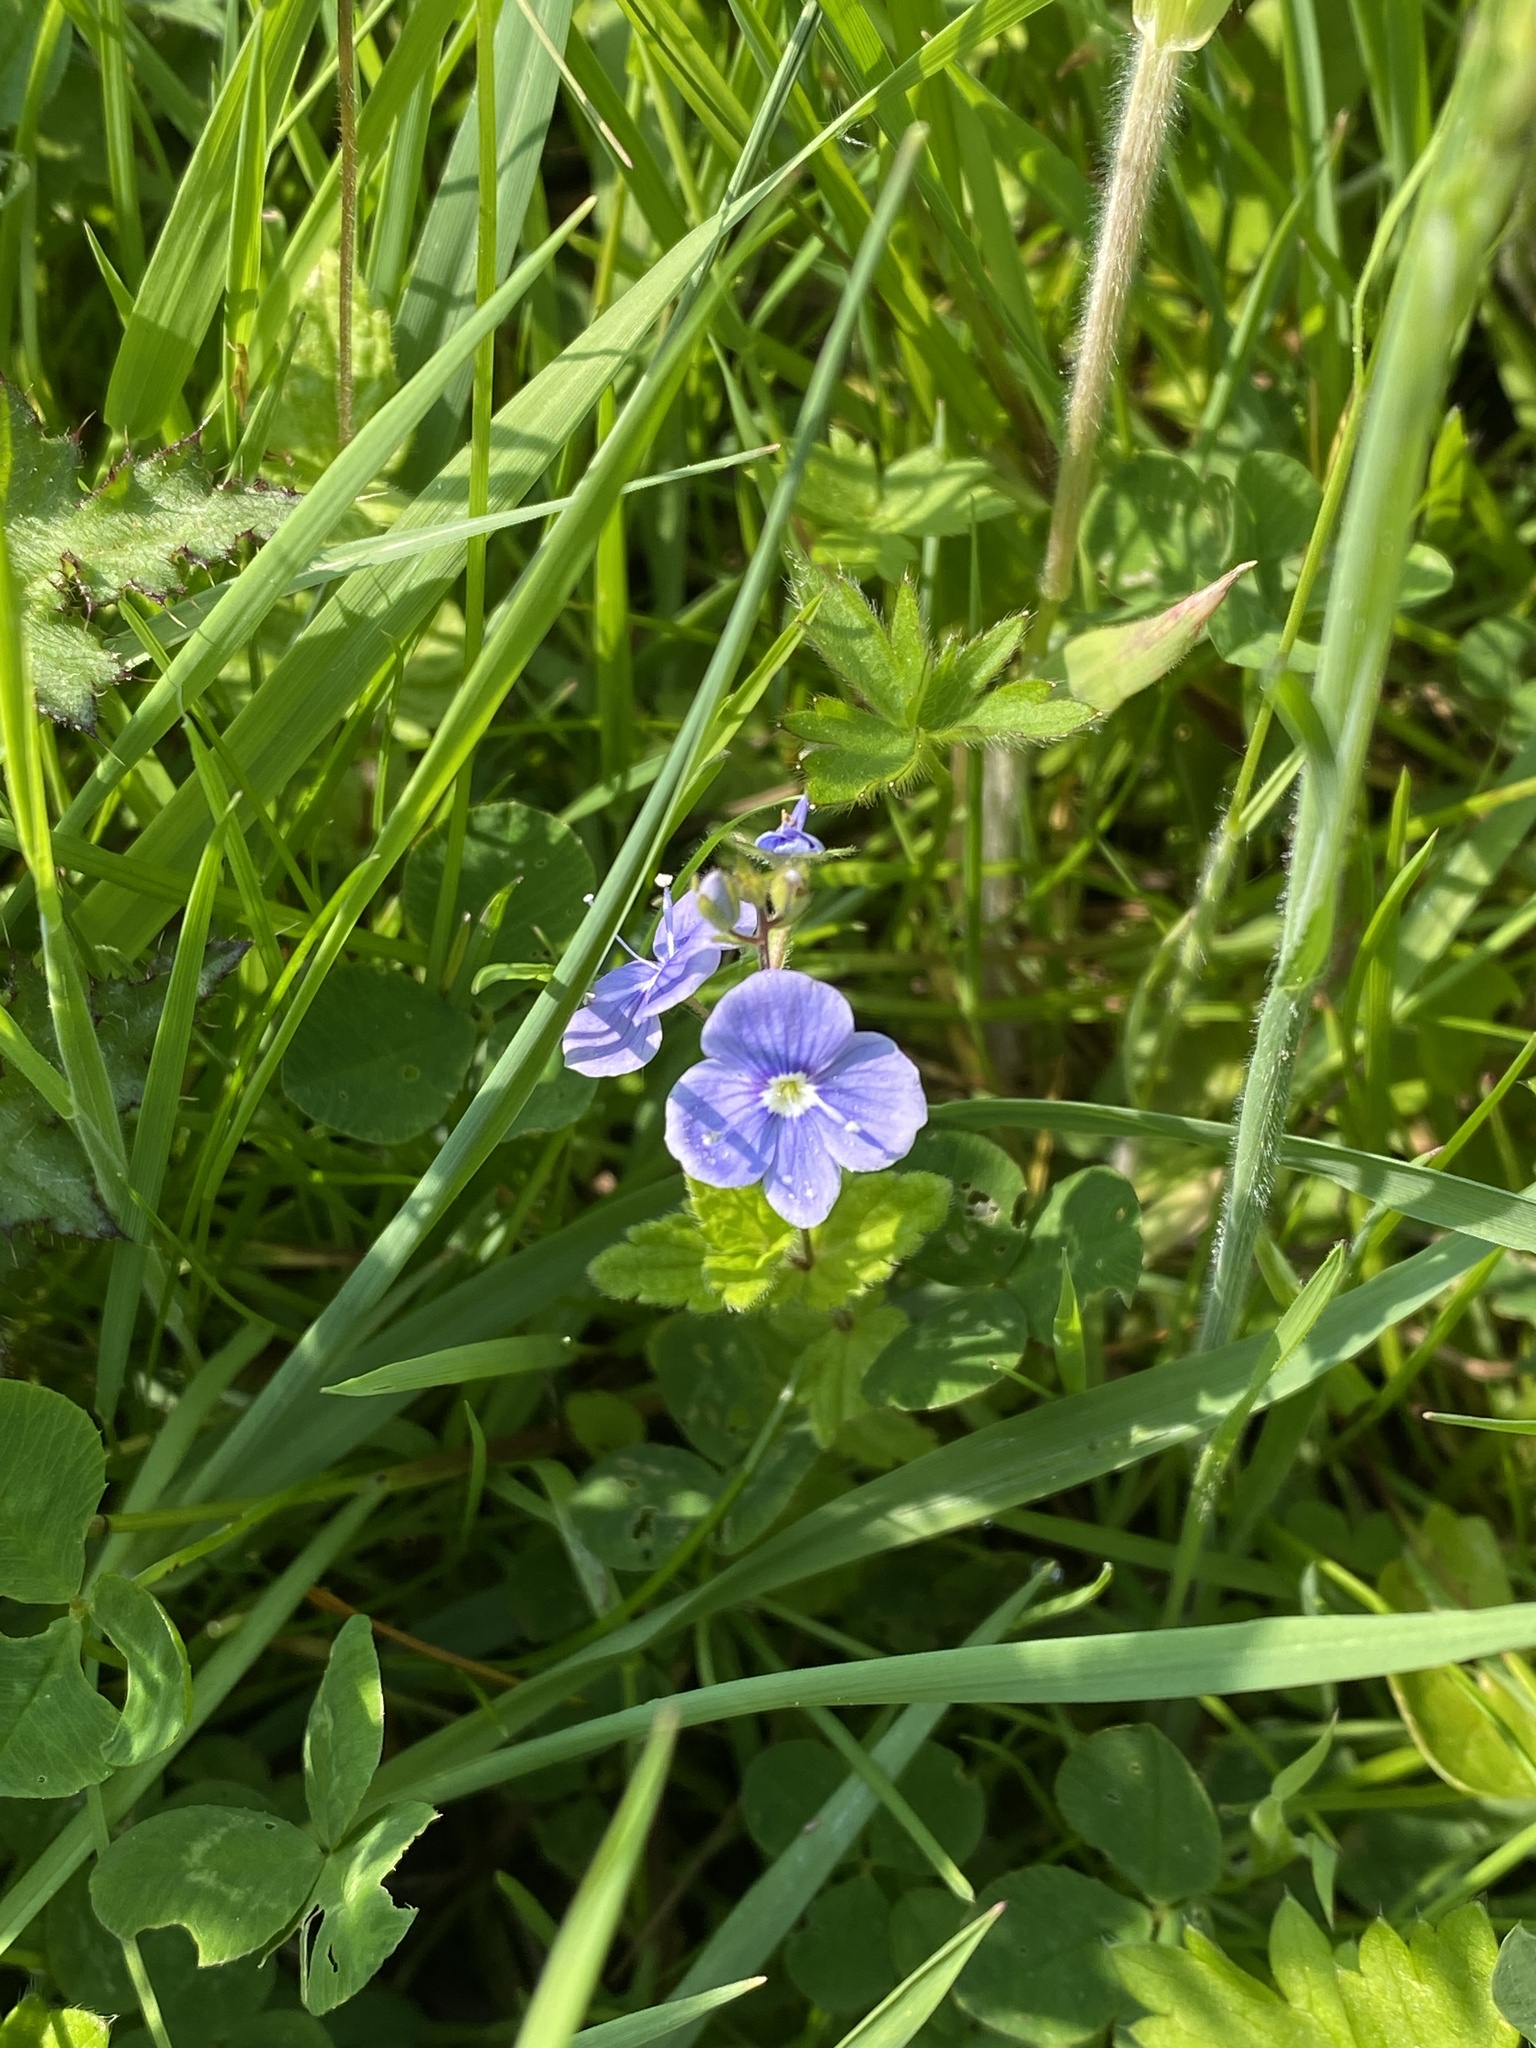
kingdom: Plantae
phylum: Tracheophyta
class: Magnoliopsida
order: Lamiales
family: Plantaginaceae
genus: Veronica
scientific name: Veronica chamaedrys
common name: Germander speedwell
